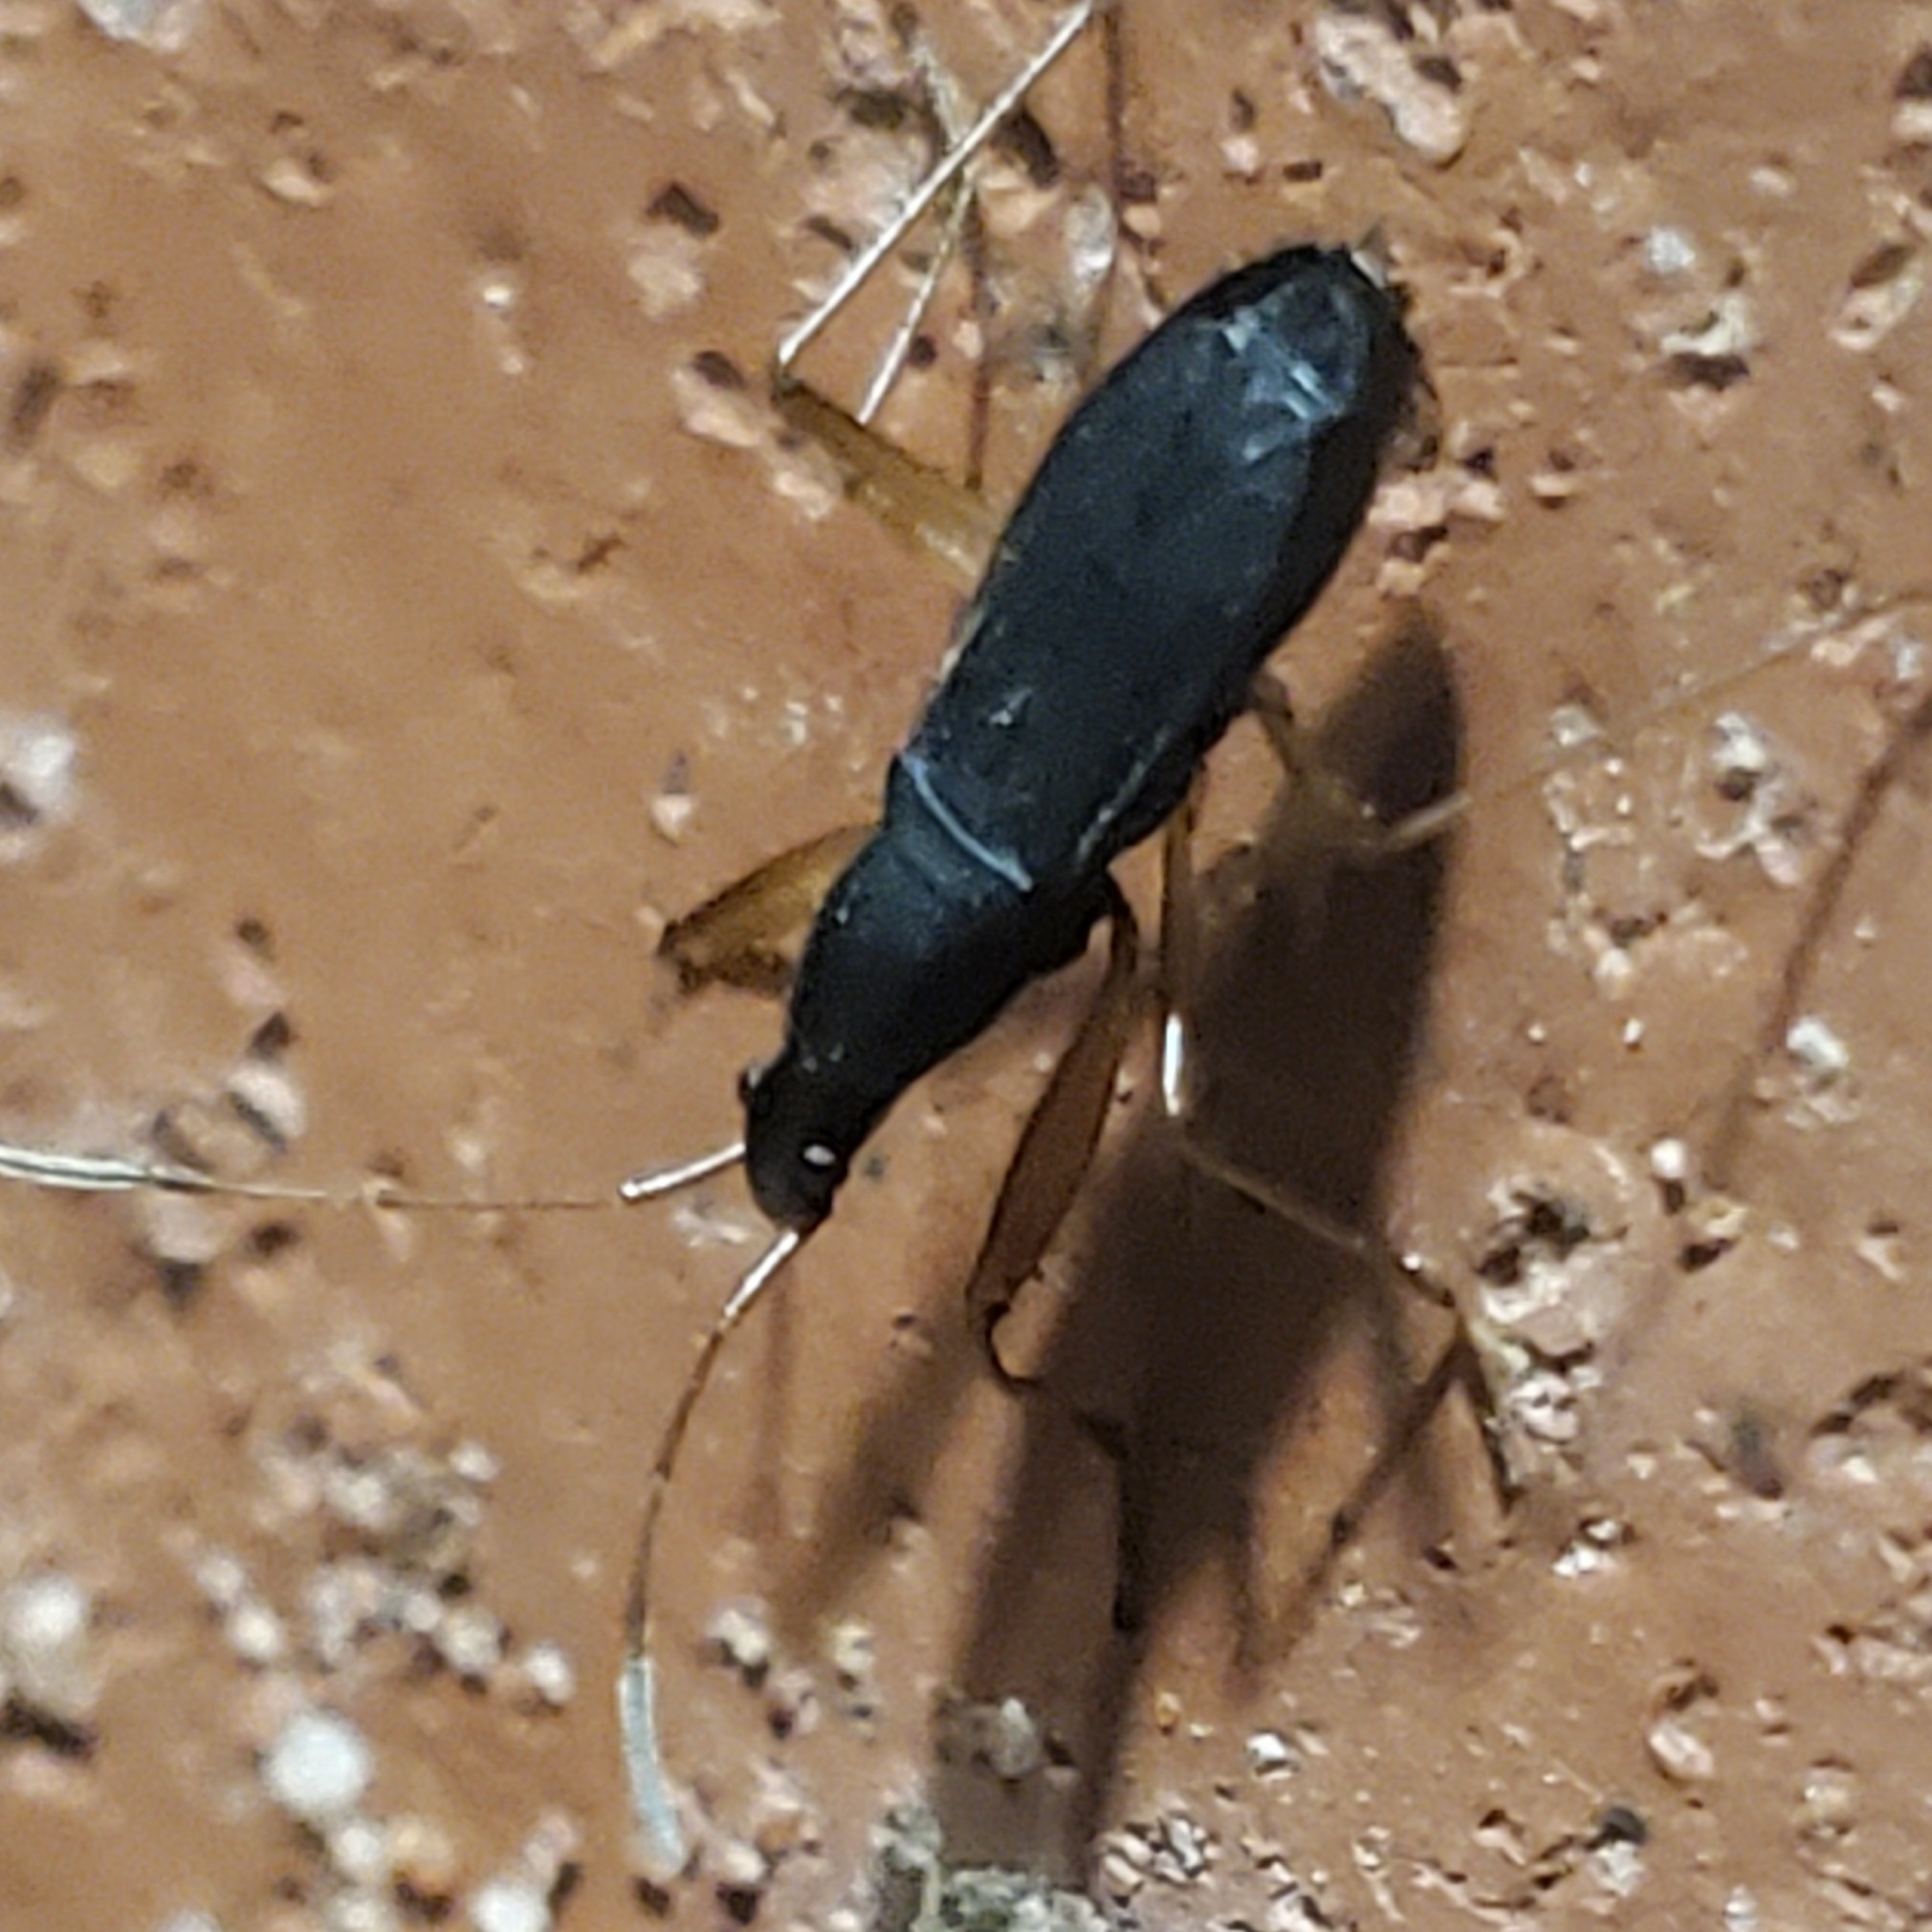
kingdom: Animalia
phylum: Arthropoda
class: Insecta
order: Hemiptera
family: Rhyparochromidae
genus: Cnemodus
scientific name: Cnemodus mavortius
